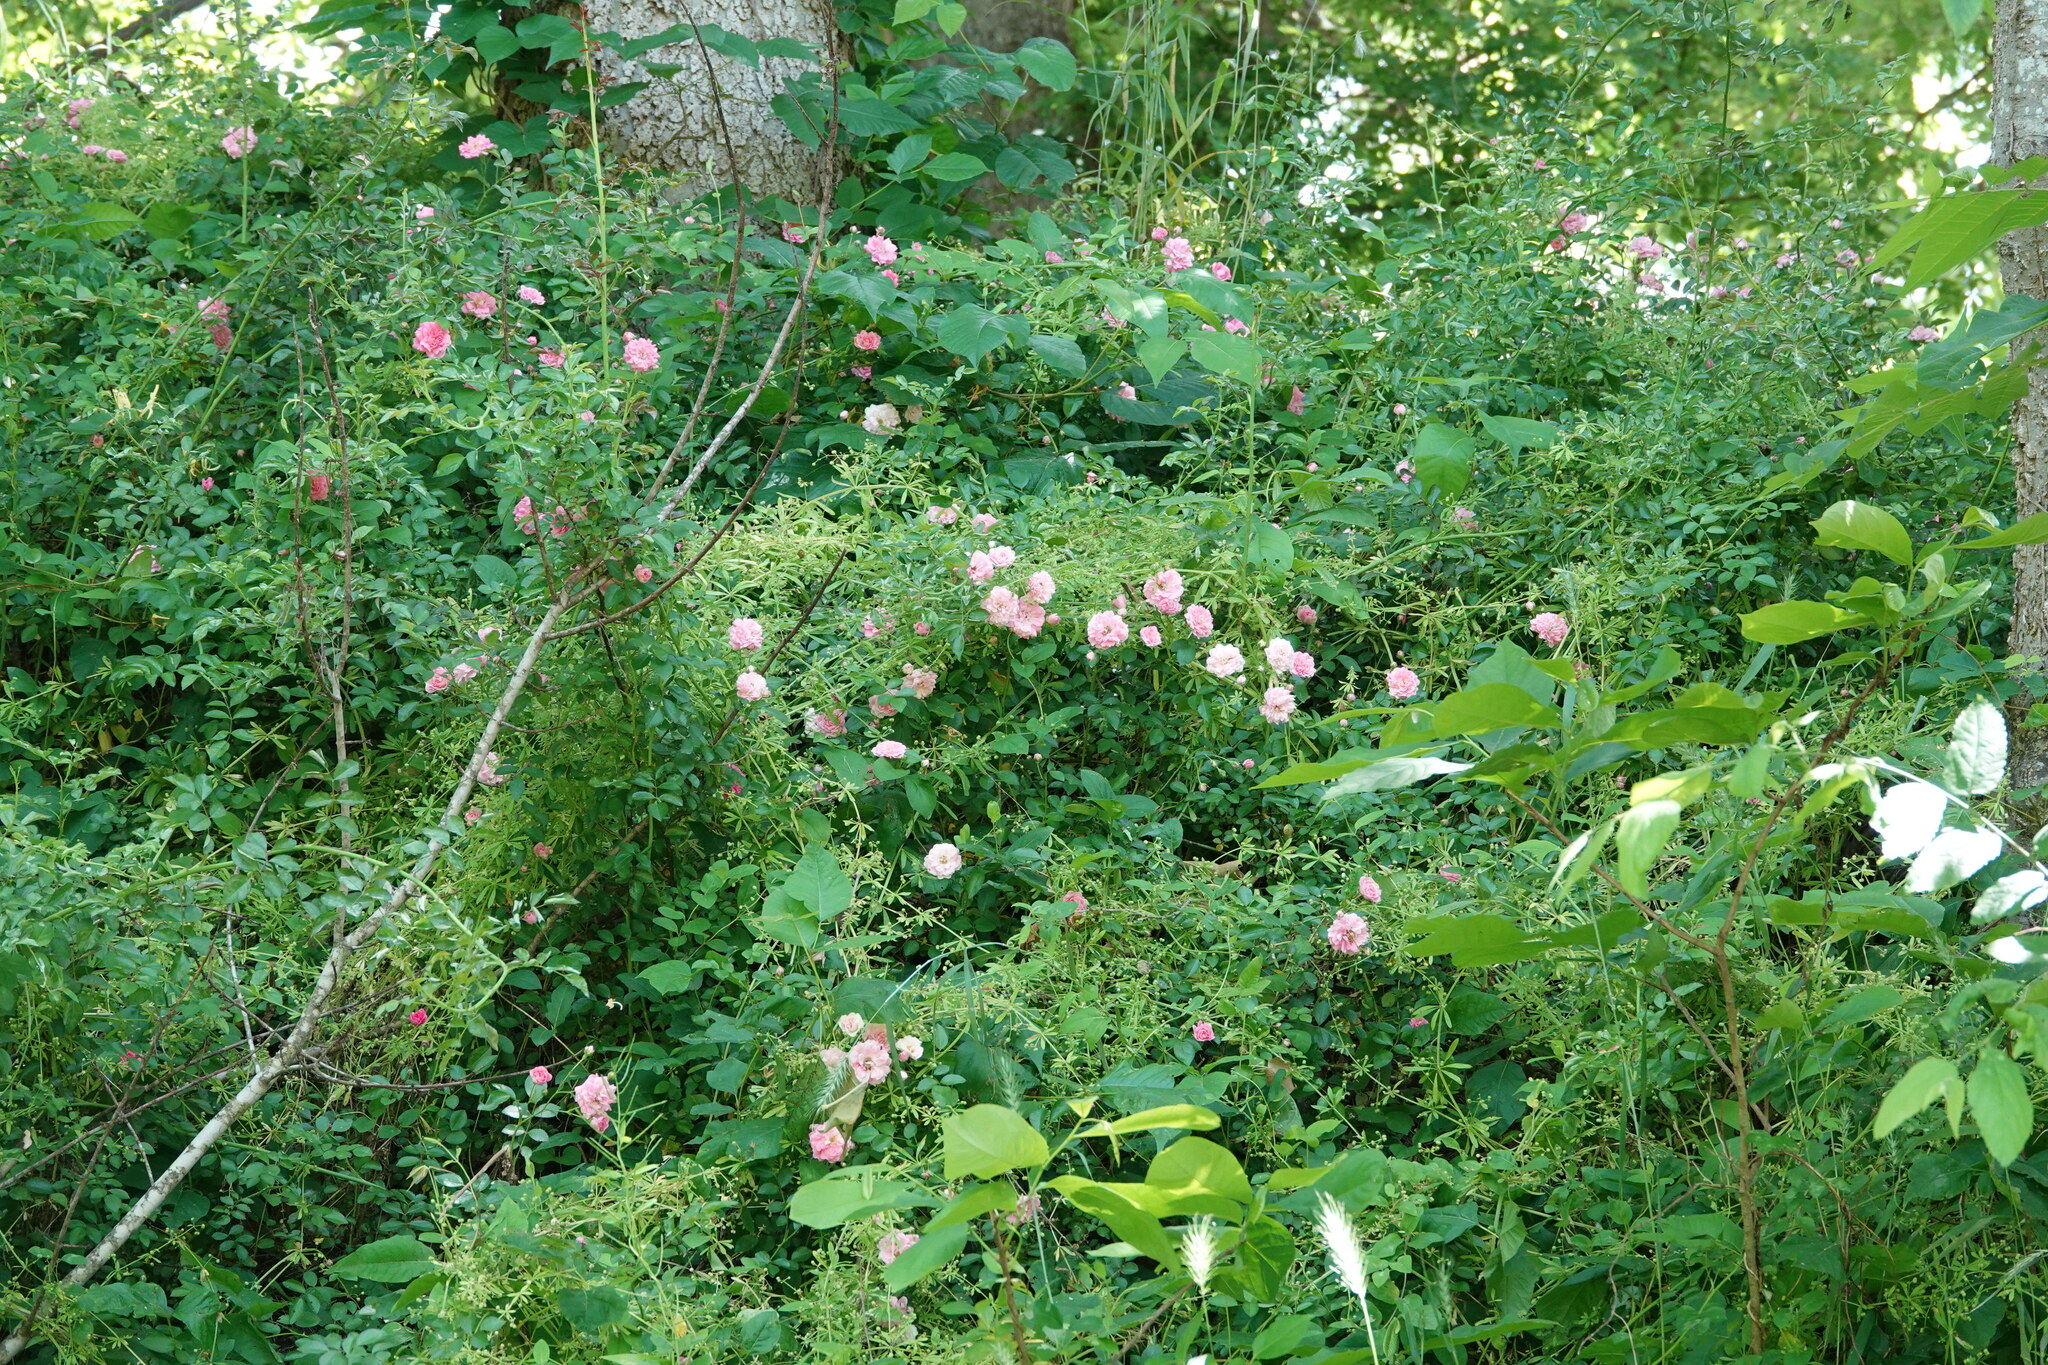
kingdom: Plantae
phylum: Tracheophyta
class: Magnoliopsida
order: Rosales
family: Rosaceae
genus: Rosa
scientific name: Rosa multiflora
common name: Multiflora rose
